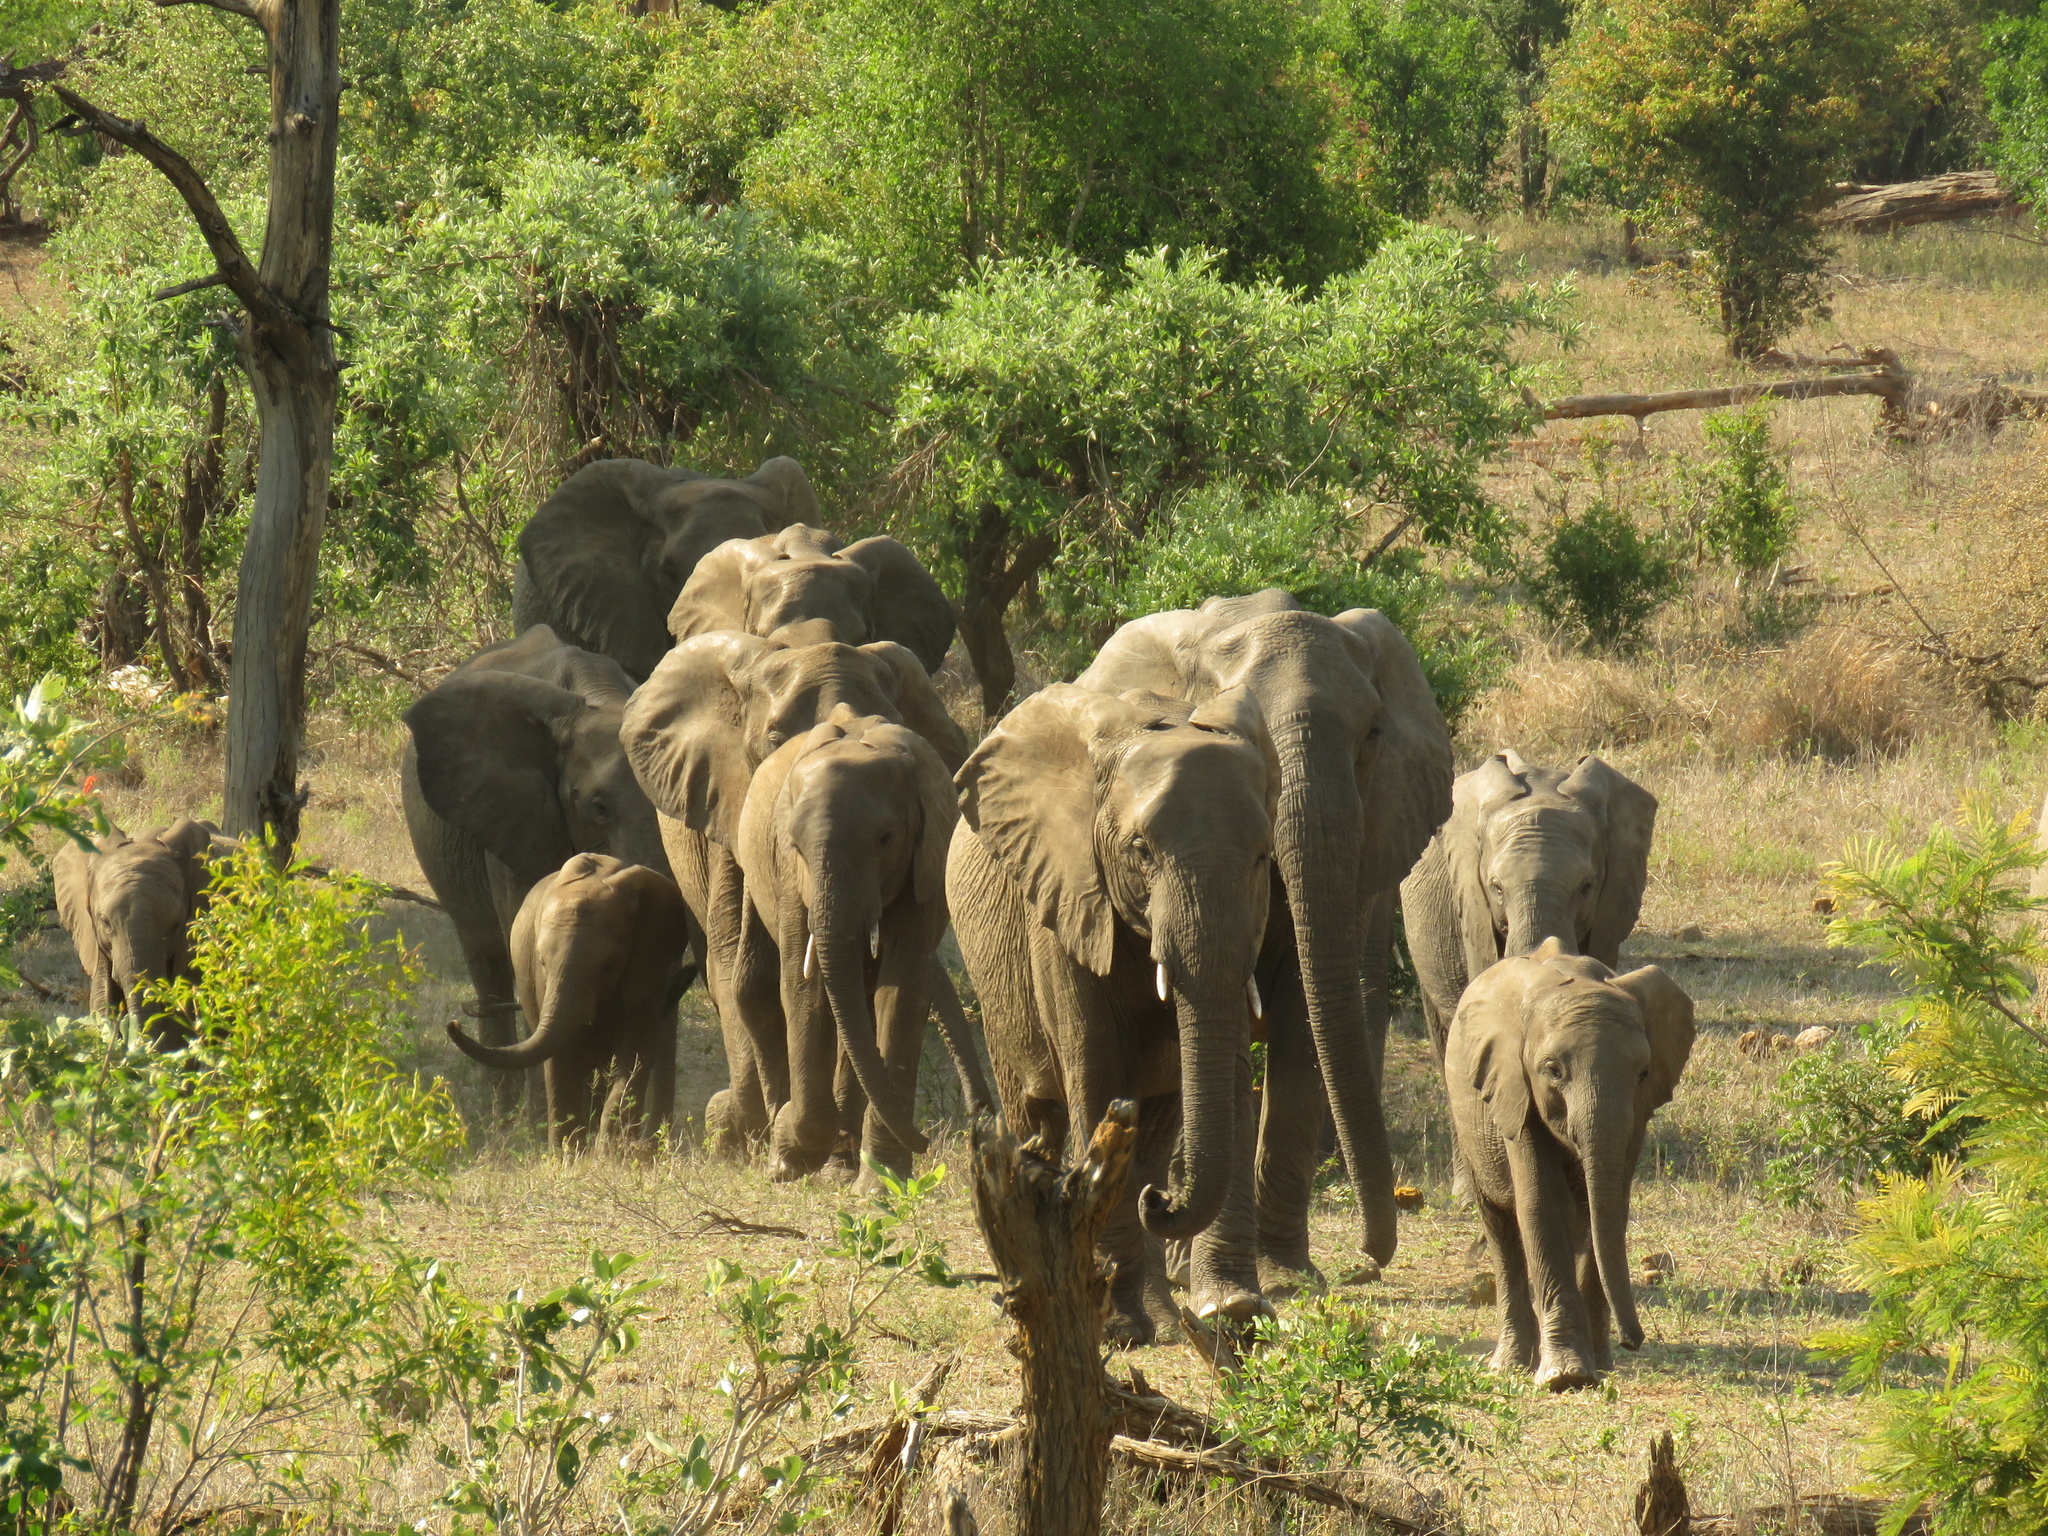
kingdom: Animalia
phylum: Chordata
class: Mammalia
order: Proboscidea
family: Elephantidae
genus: Loxodonta
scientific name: Loxodonta africana
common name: African elephant
